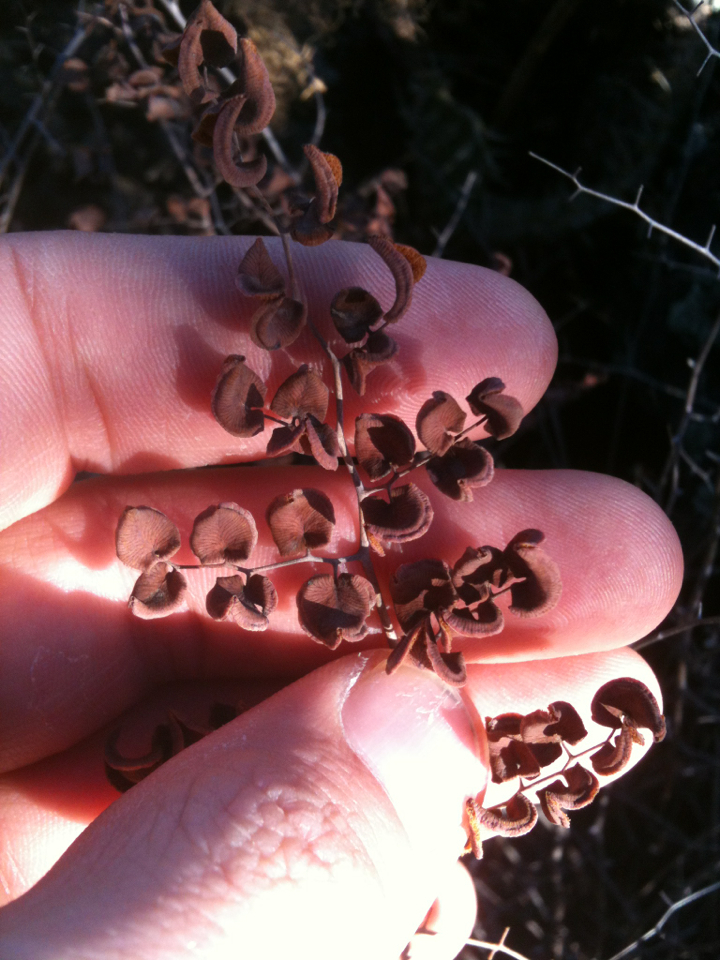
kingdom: Plantae
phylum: Tracheophyta
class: Polypodiopsida
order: Polypodiales
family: Pteridaceae
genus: Pellaea
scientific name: Pellaea cordifolia
